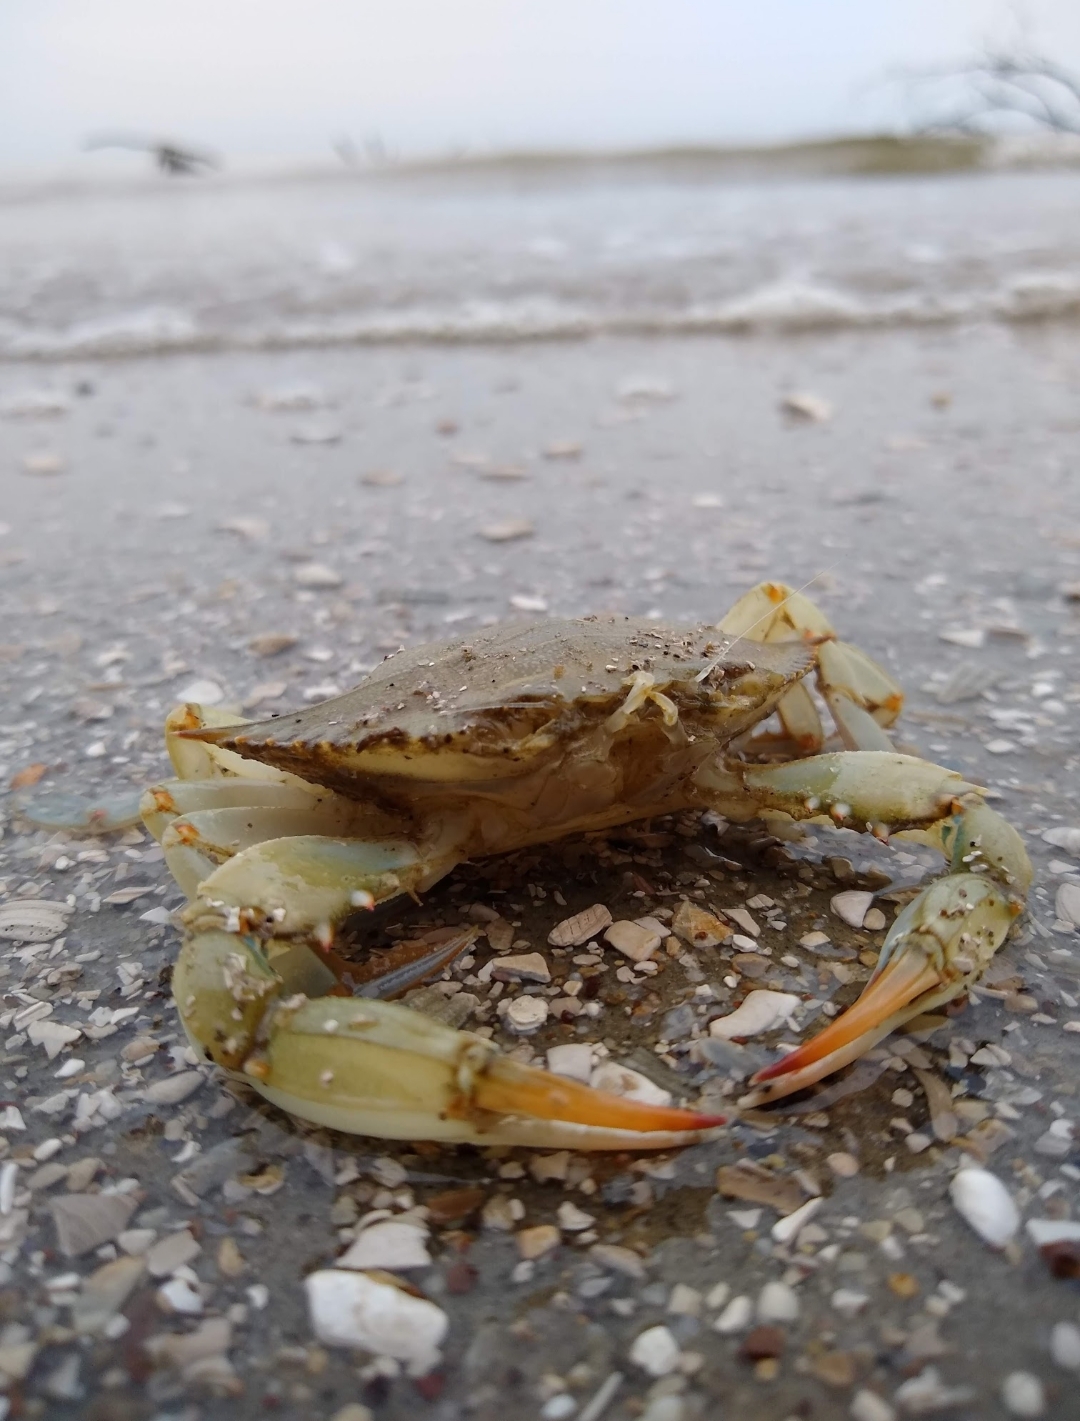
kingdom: Animalia
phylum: Arthropoda
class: Malacostraca
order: Decapoda
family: Portunidae
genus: Callinectes
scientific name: Callinectes sapidus
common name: Blue crab
